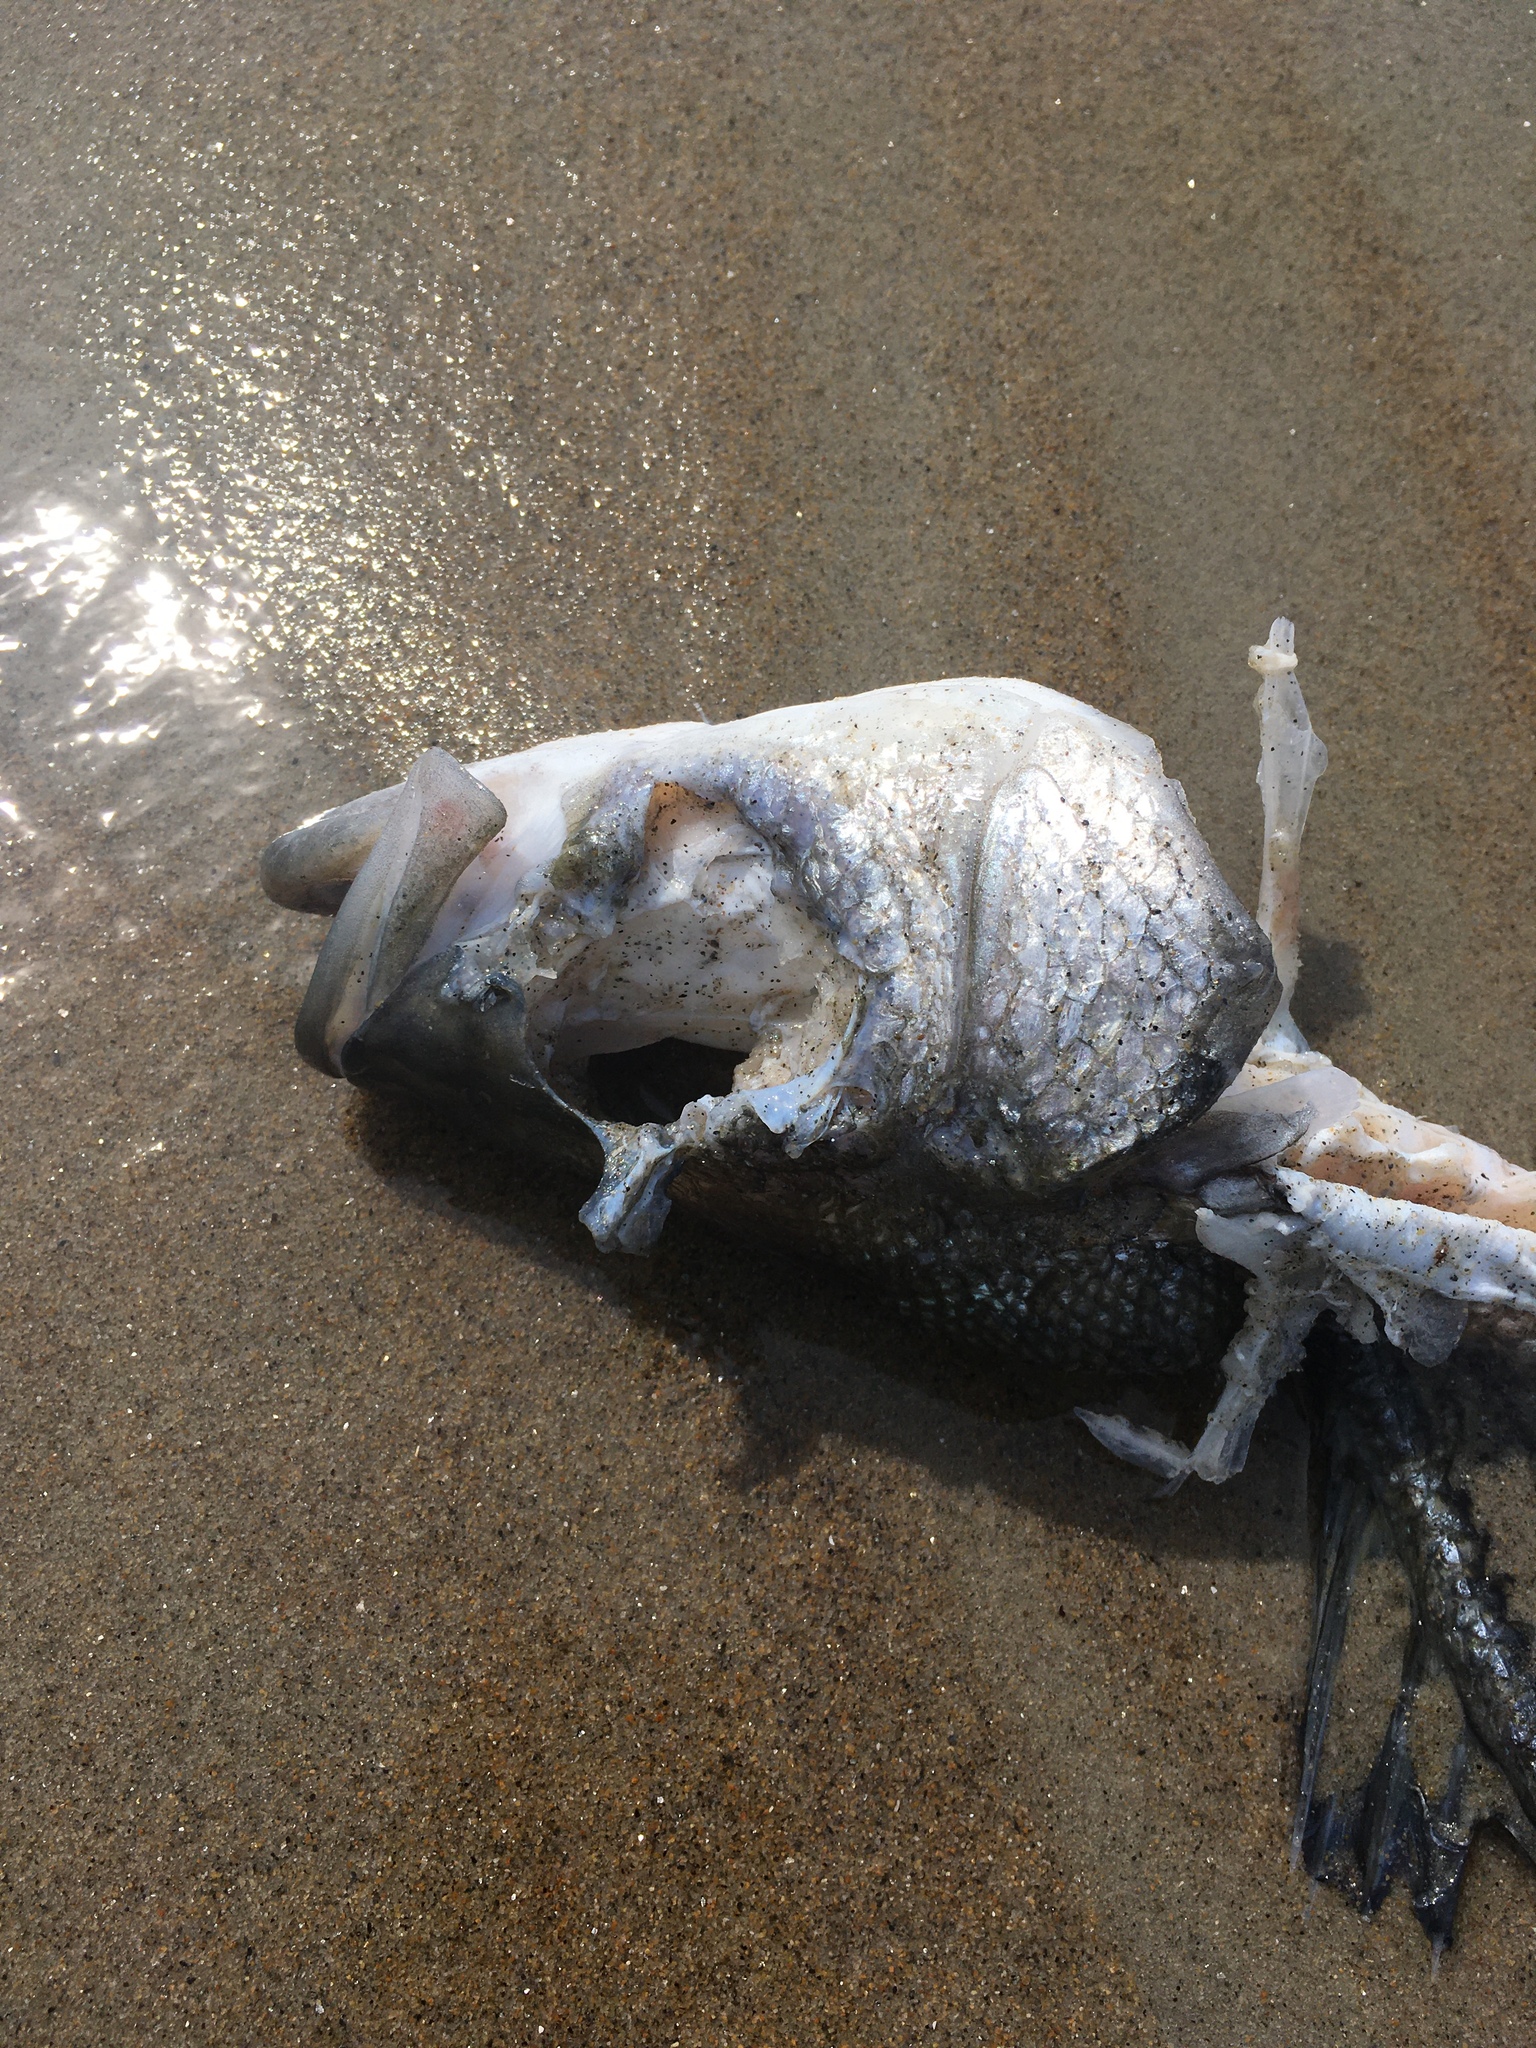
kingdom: Animalia
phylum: Chordata
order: Perciformes
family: Moronidae
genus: Morone
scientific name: Morone saxatilis
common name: Striped bass
